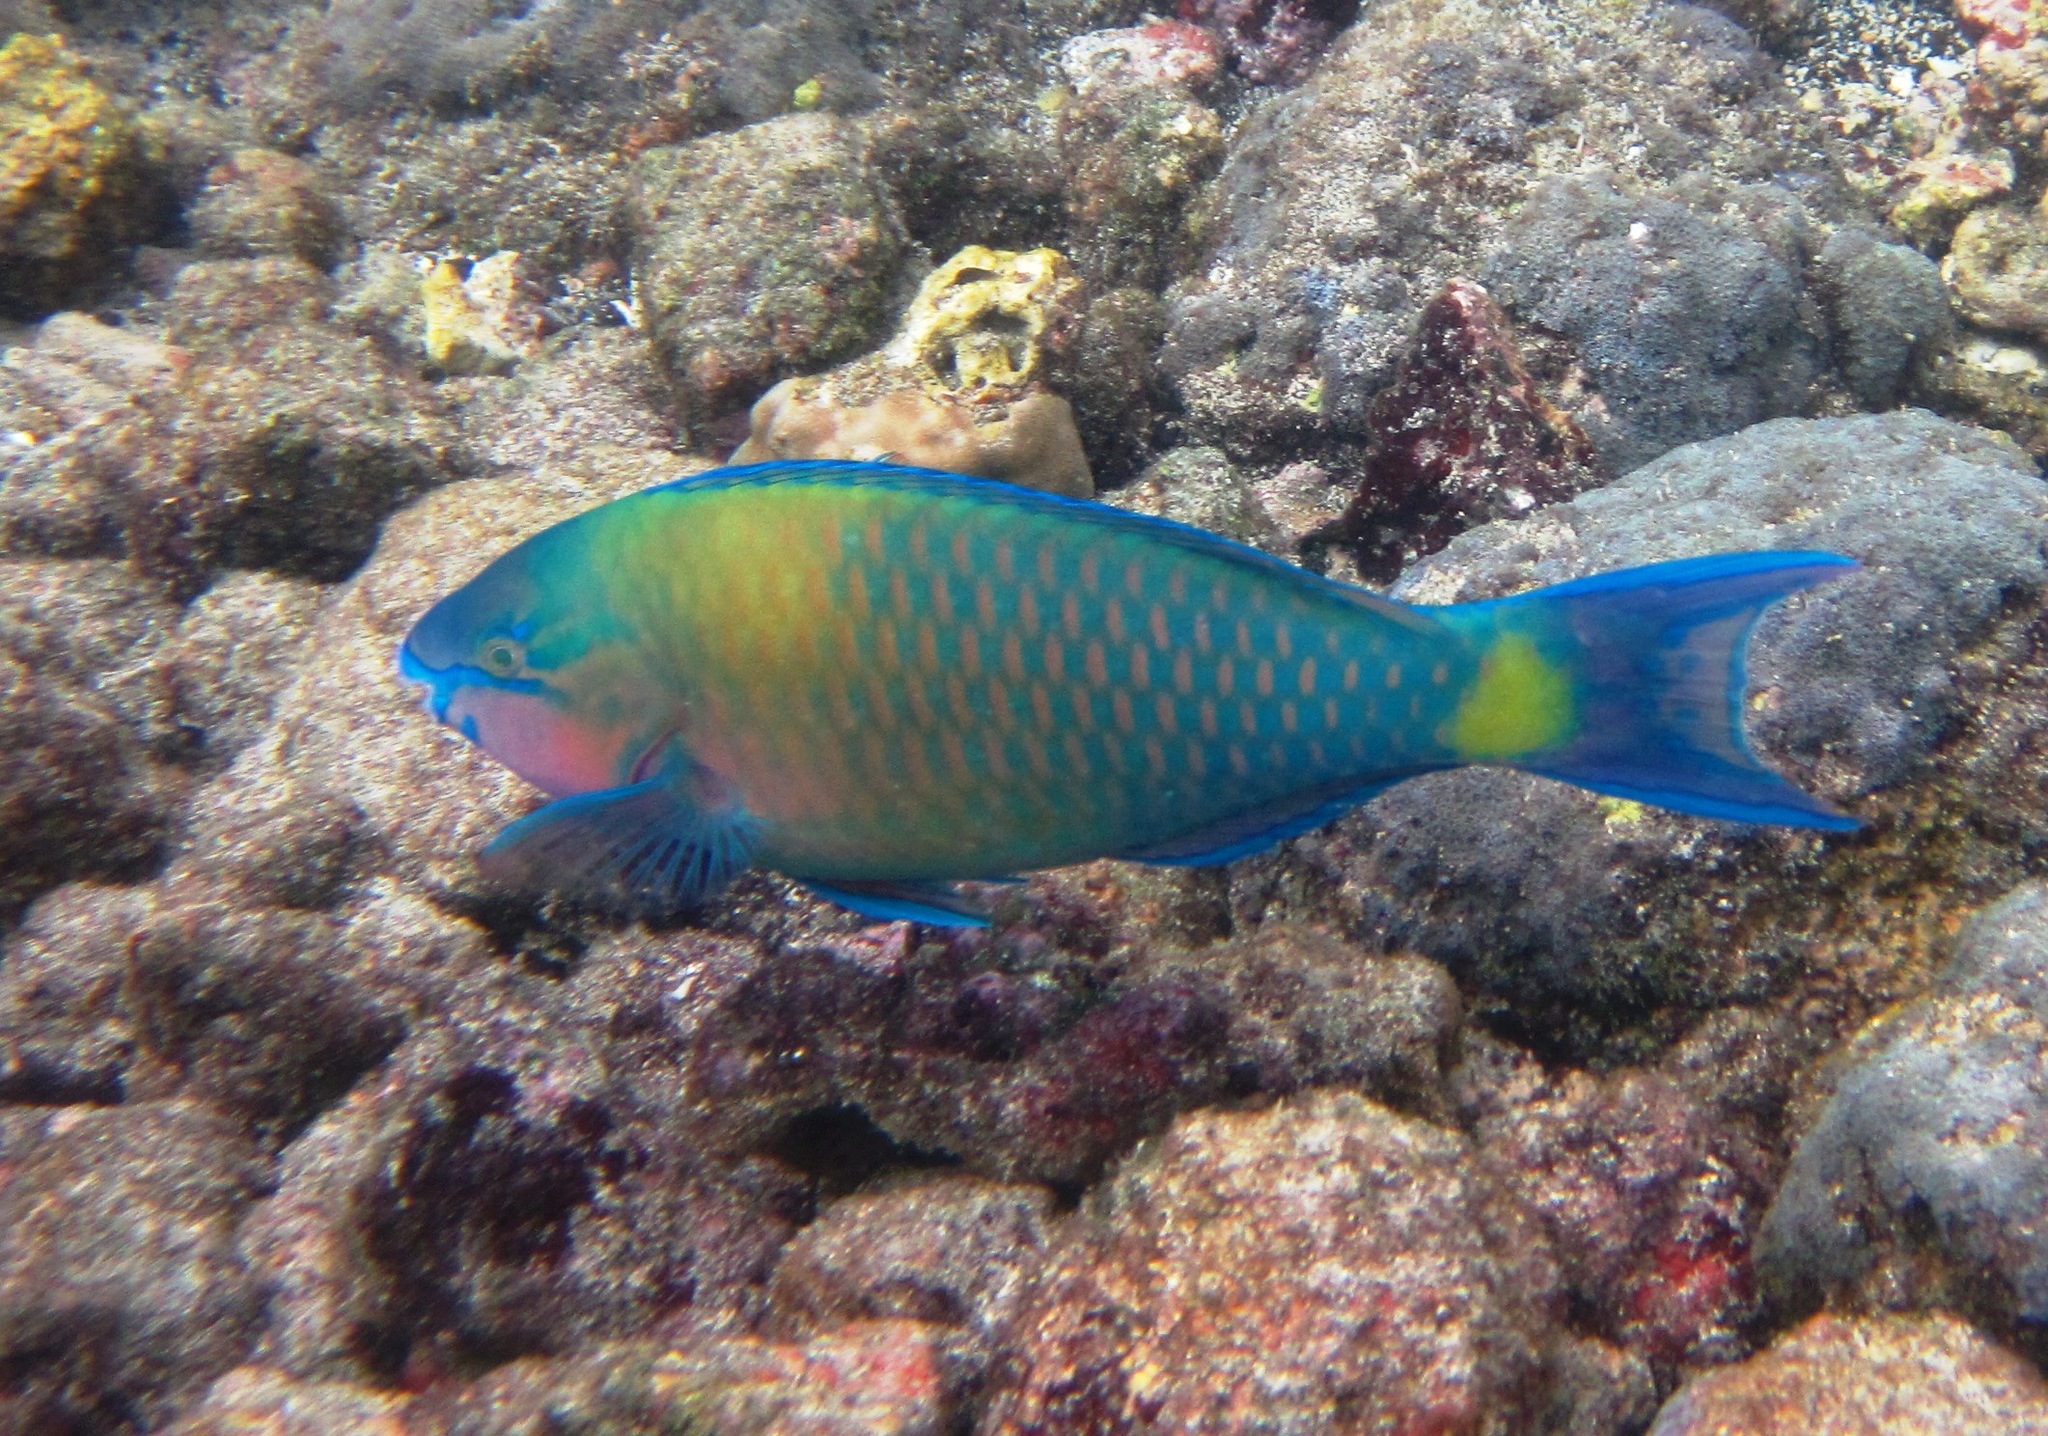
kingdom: Animalia
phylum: Chordata
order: Perciformes
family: Scaridae
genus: Scarus
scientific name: Scarus psittacus
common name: Palenose parrotfish
